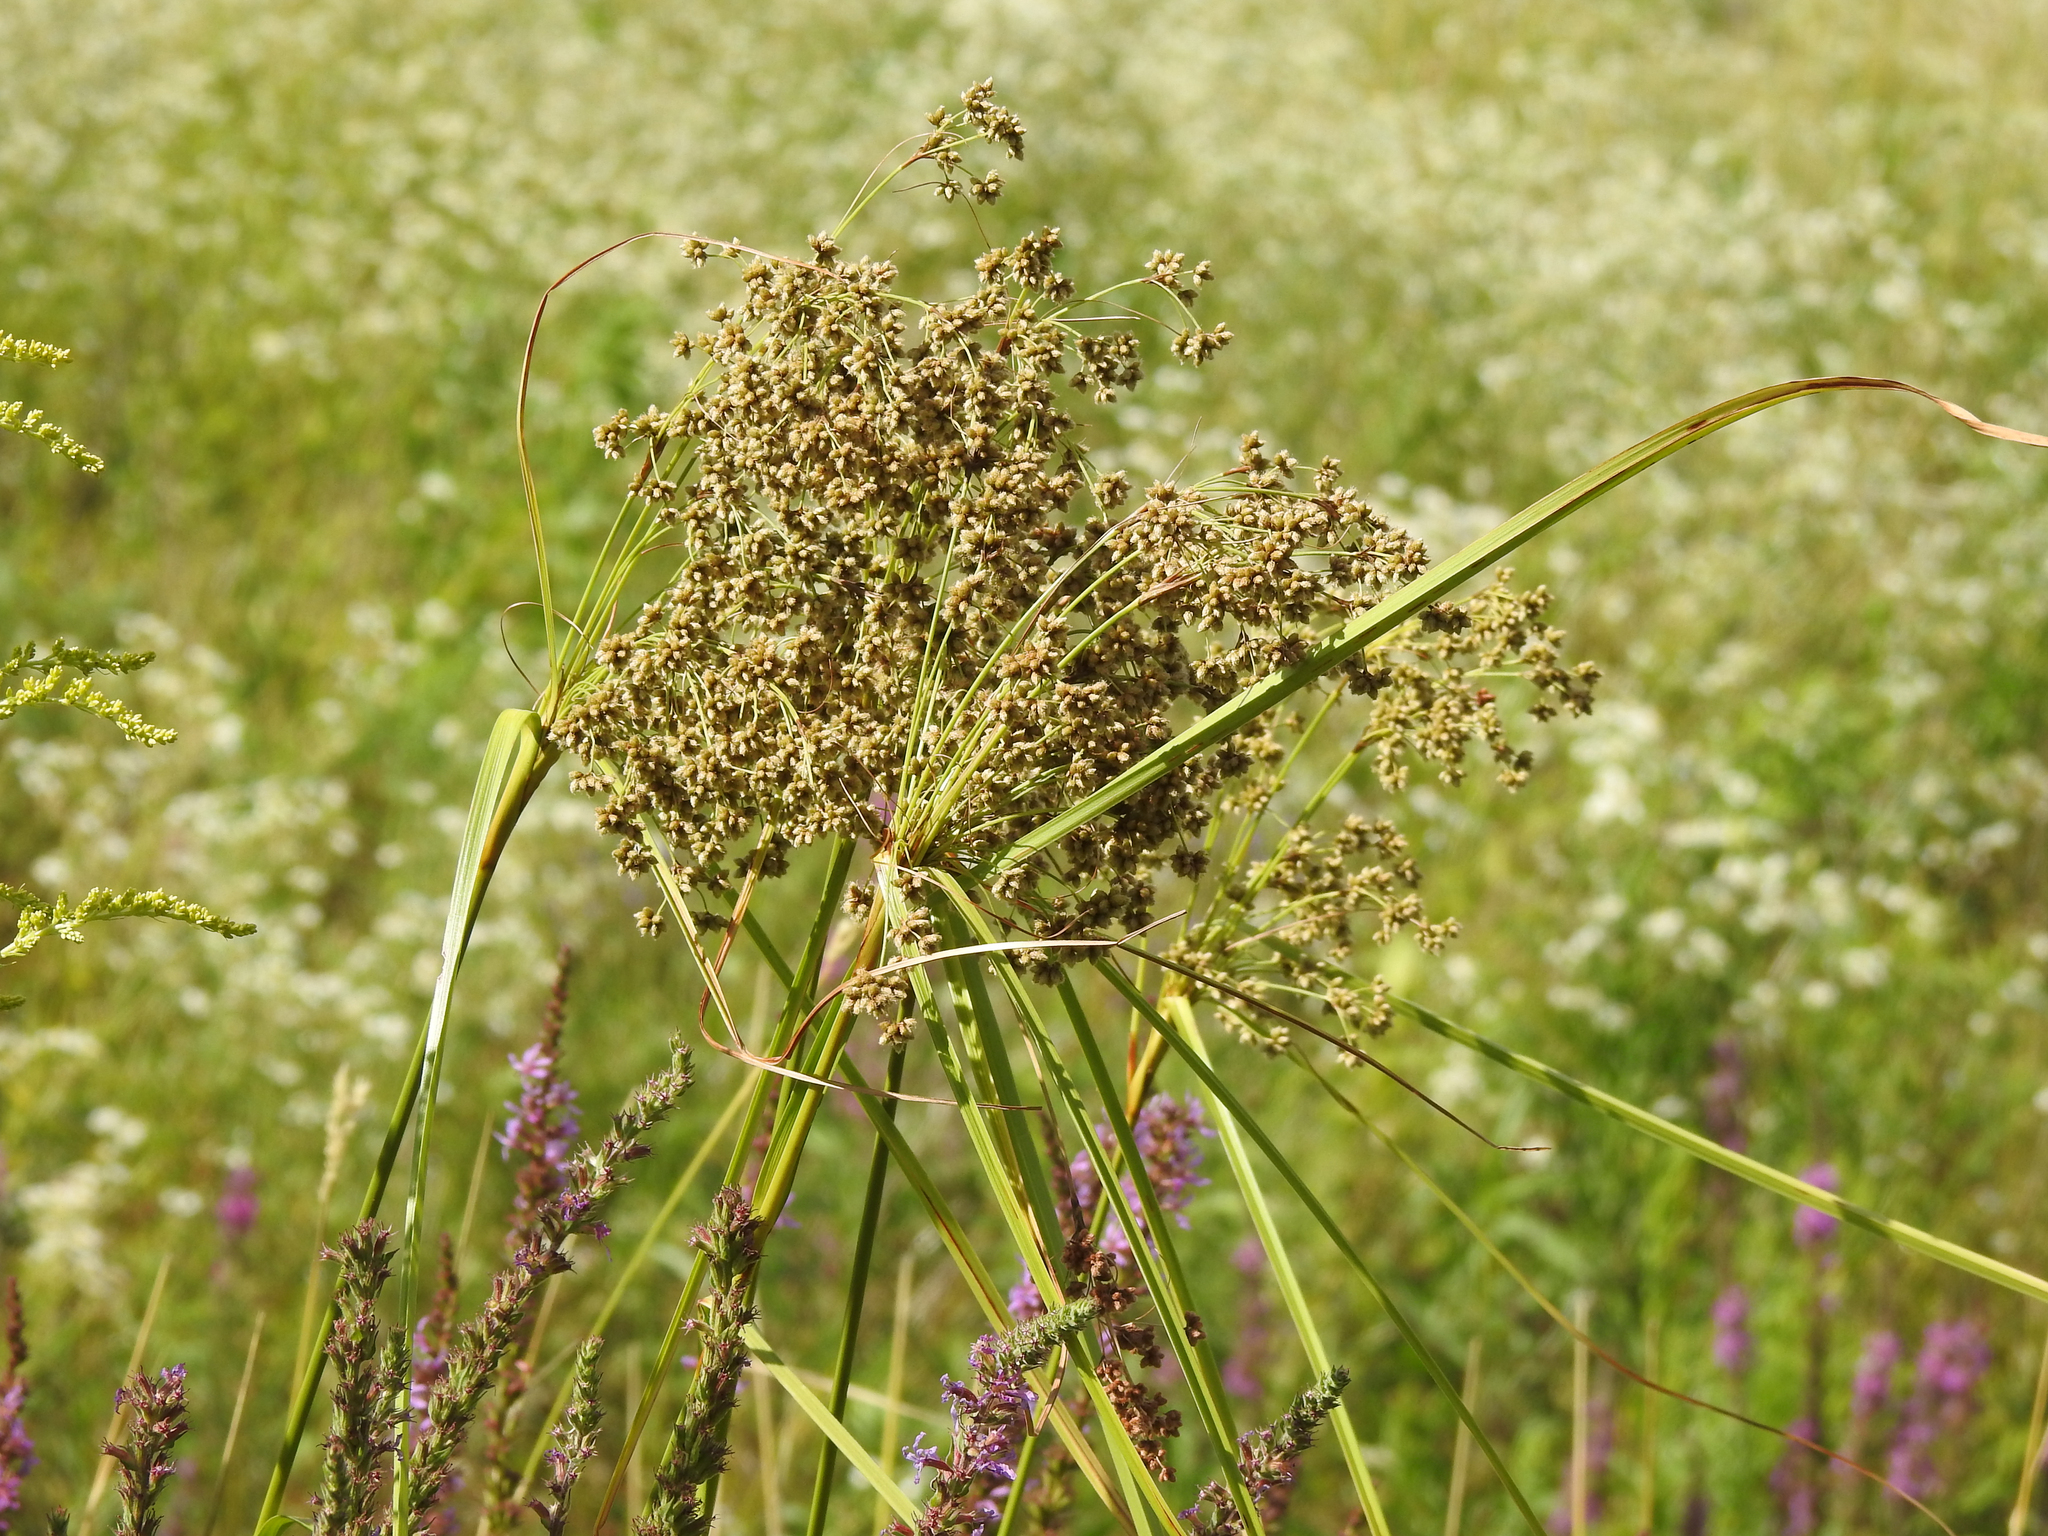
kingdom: Plantae
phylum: Tracheophyta
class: Liliopsida
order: Poales
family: Cyperaceae
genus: Scirpus
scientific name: Scirpus cyperinus
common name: Black-sheathed bulrush
